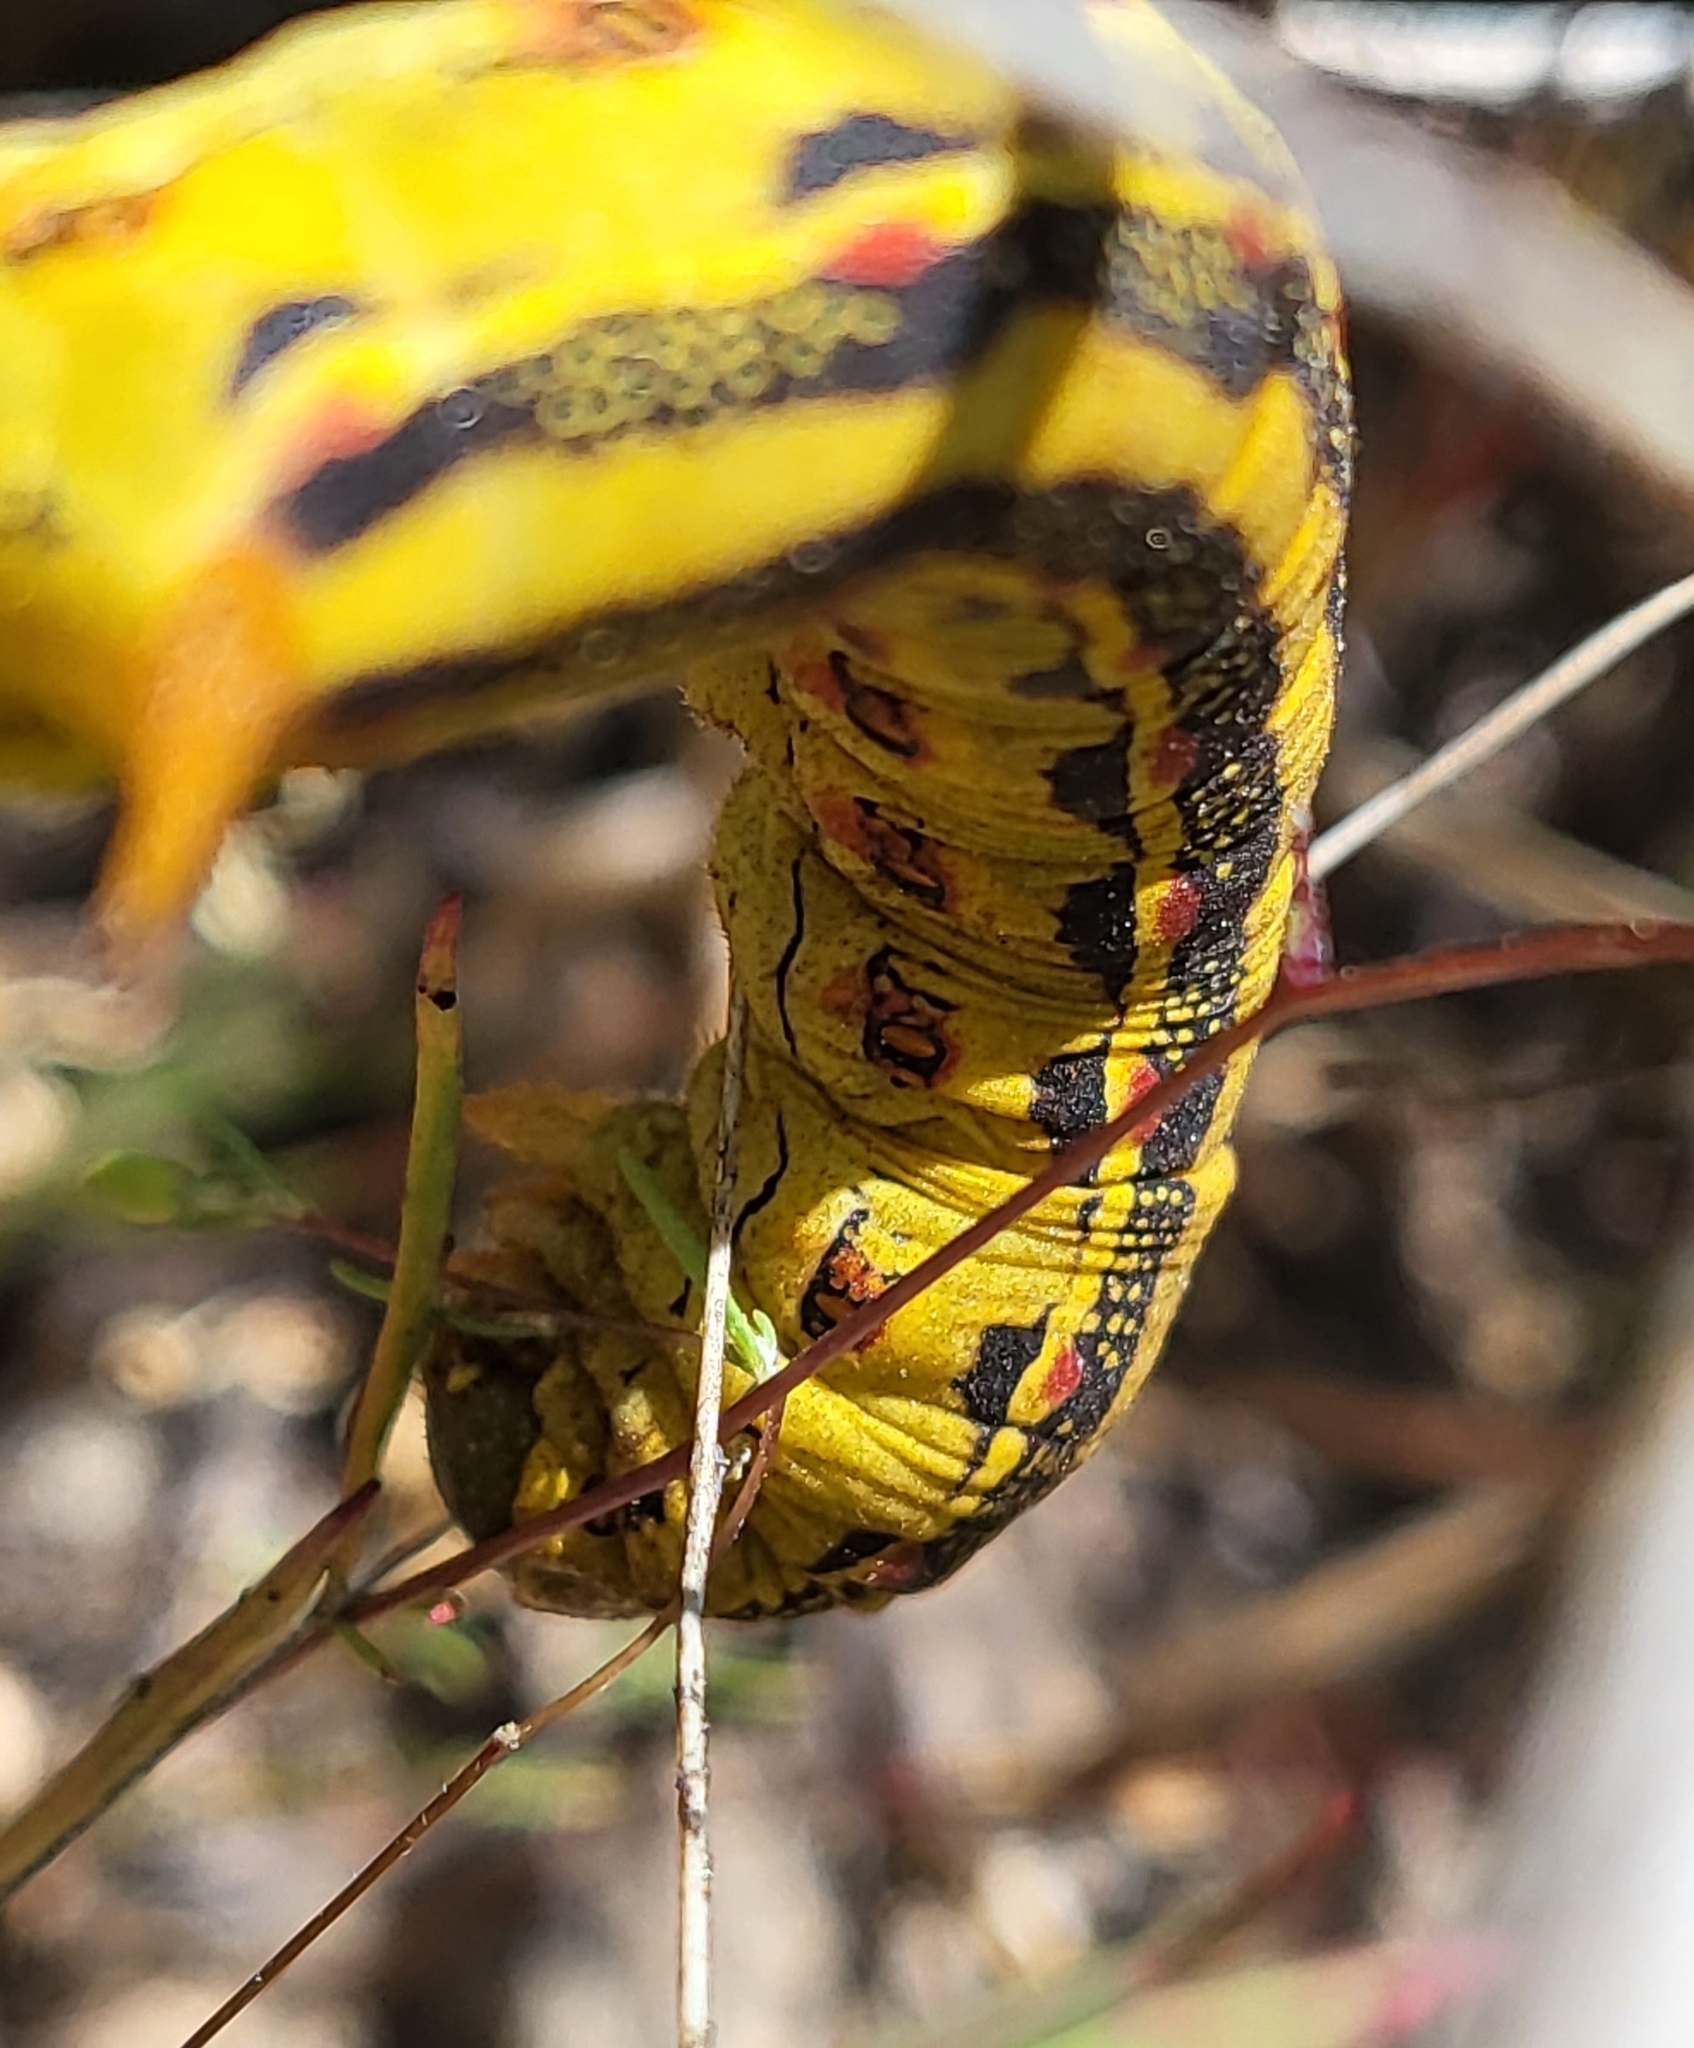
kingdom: Animalia
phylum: Arthropoda
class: Insecta
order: Lepidoptera
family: Sphingidae
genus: Hyles
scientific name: Hyles lineata
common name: White-lined sphinx
